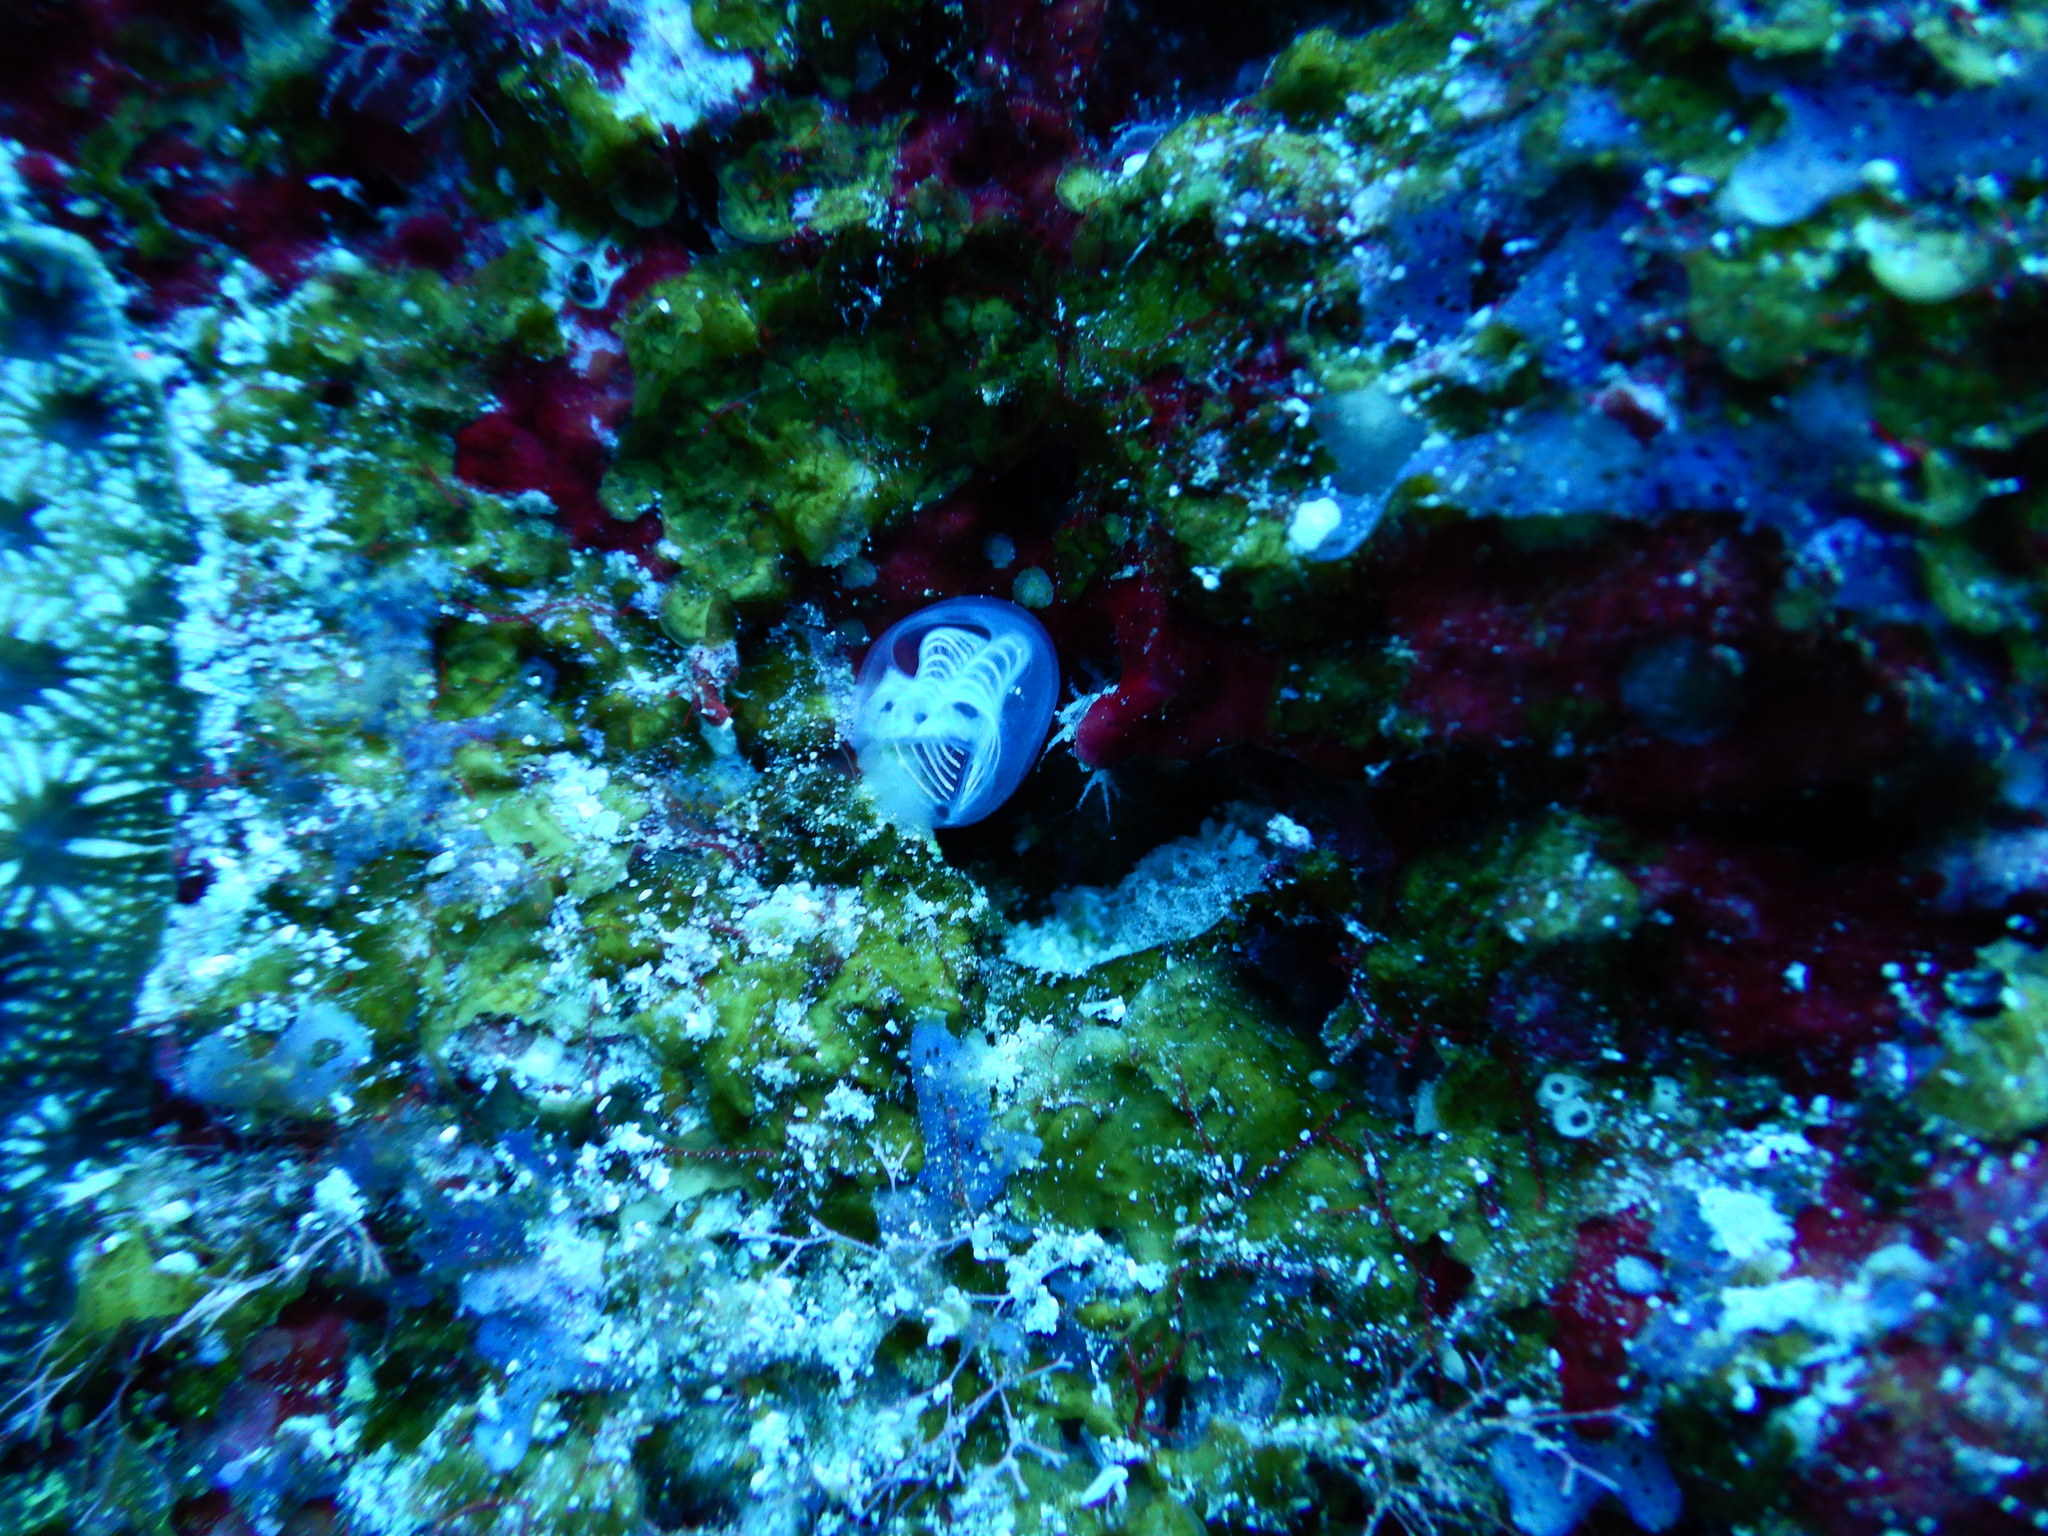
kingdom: Animalia
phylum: Chordata
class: Ascidiacea
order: Aplousobranchia
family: Clavelinidae
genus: Clavelina
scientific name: Clavelina polycitorella
